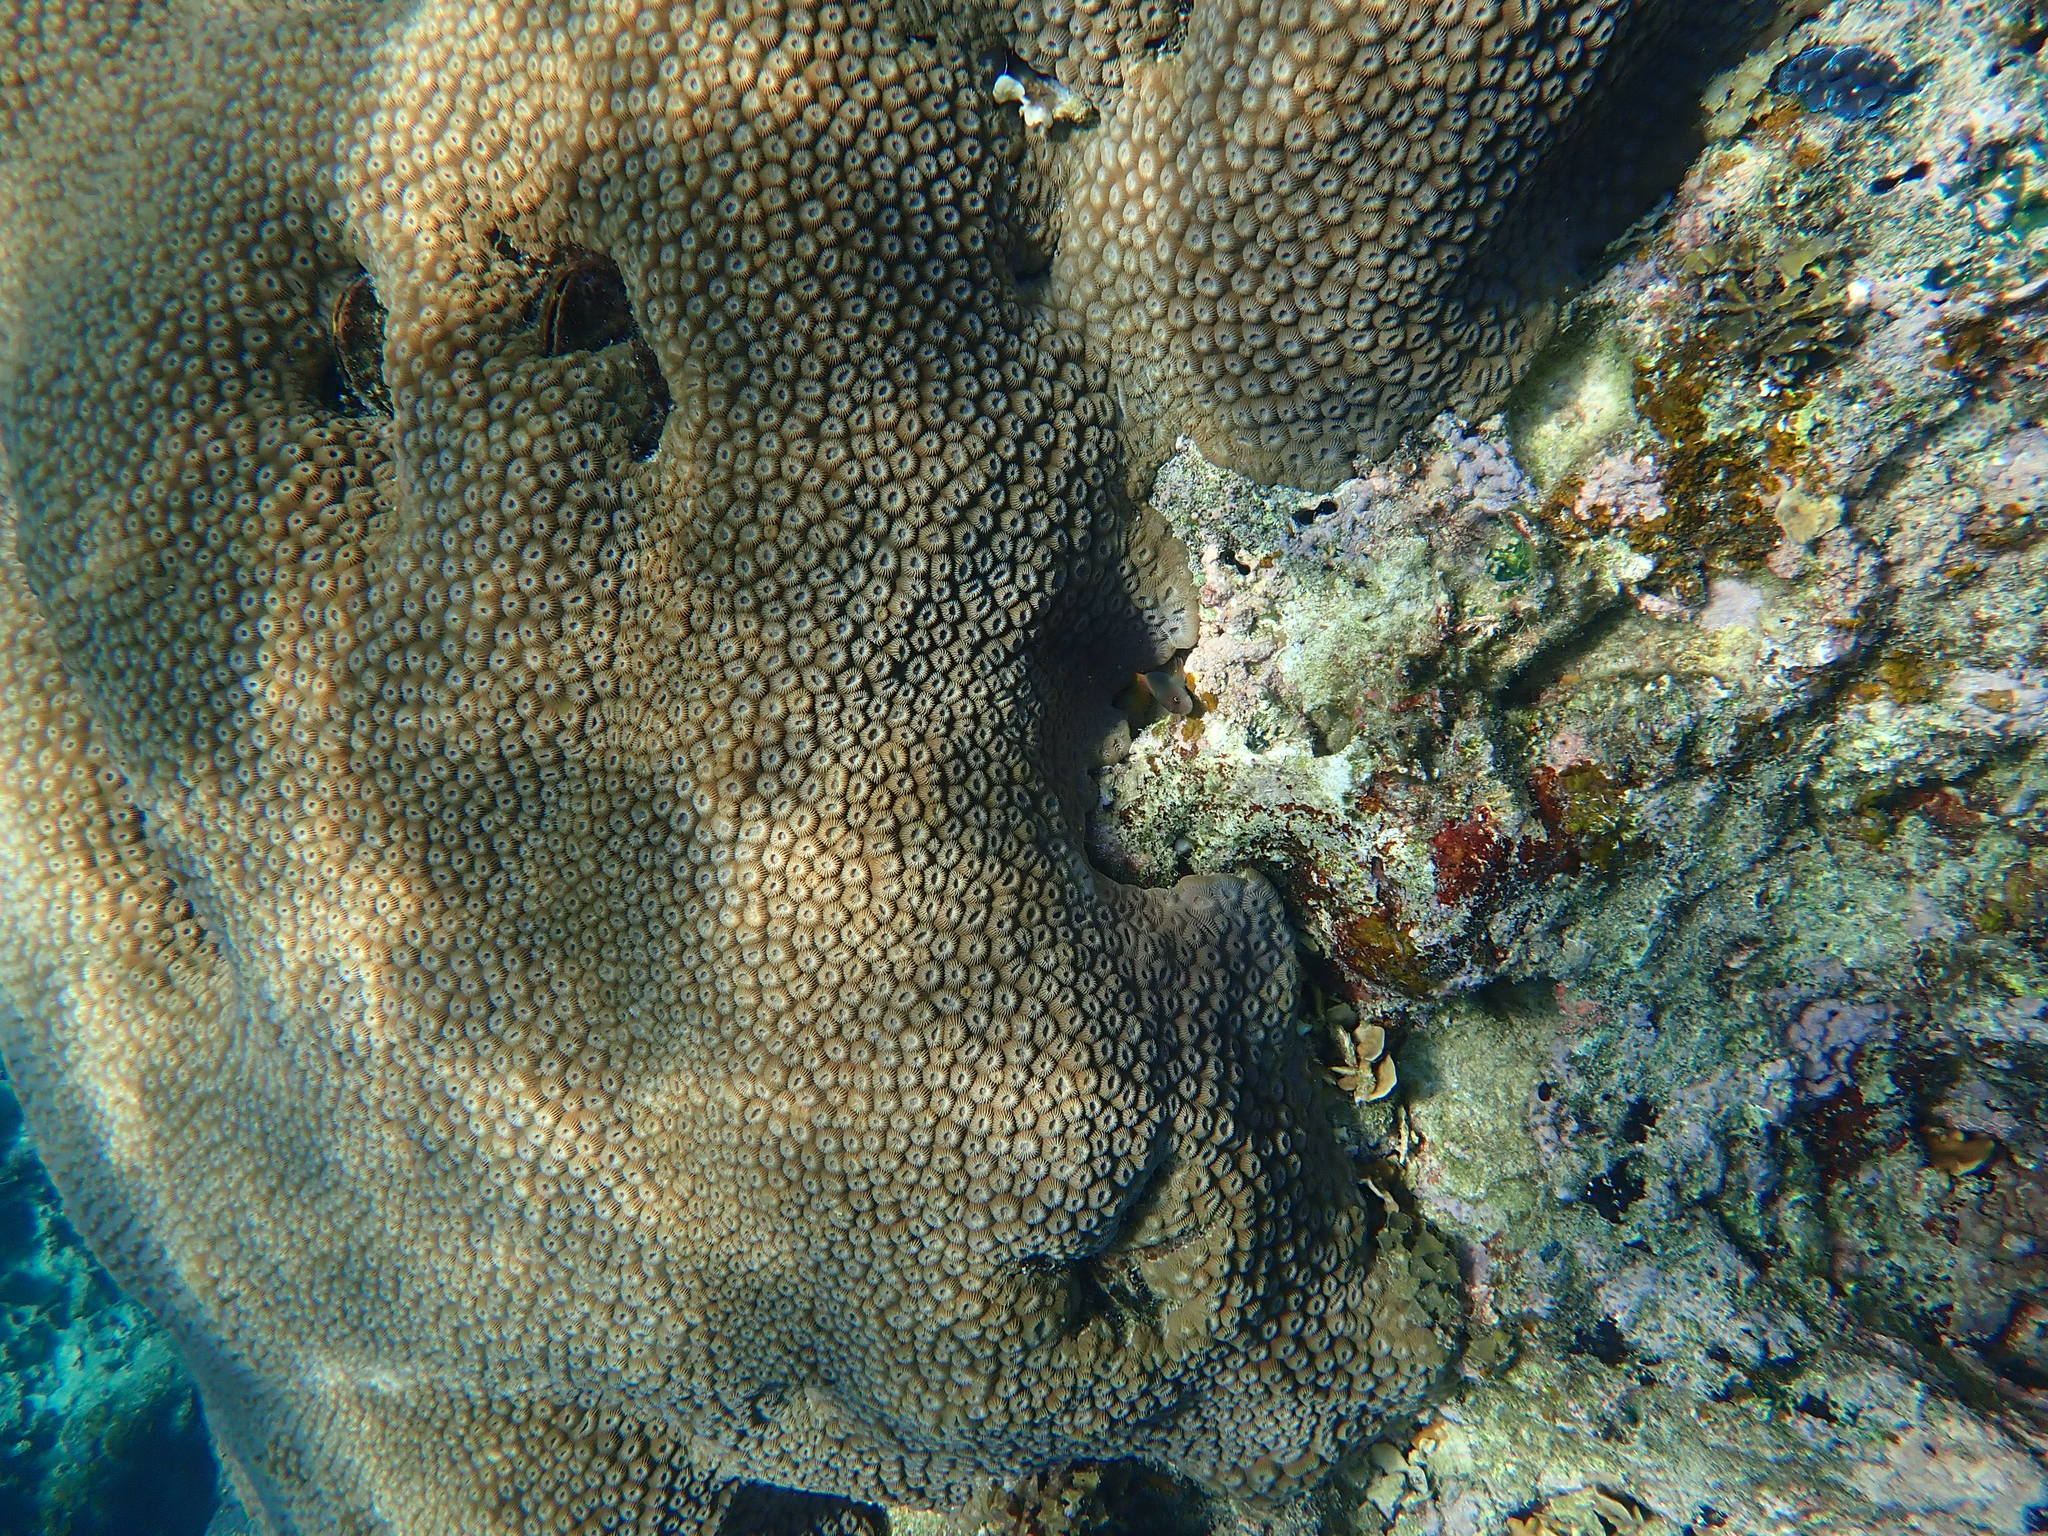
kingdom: Animalia
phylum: Cnidaria
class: Anthozoa
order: Scleractinia
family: Diploastraeidae
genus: Diploastrea
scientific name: Diploastrea heliopora
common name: Double-star coral
